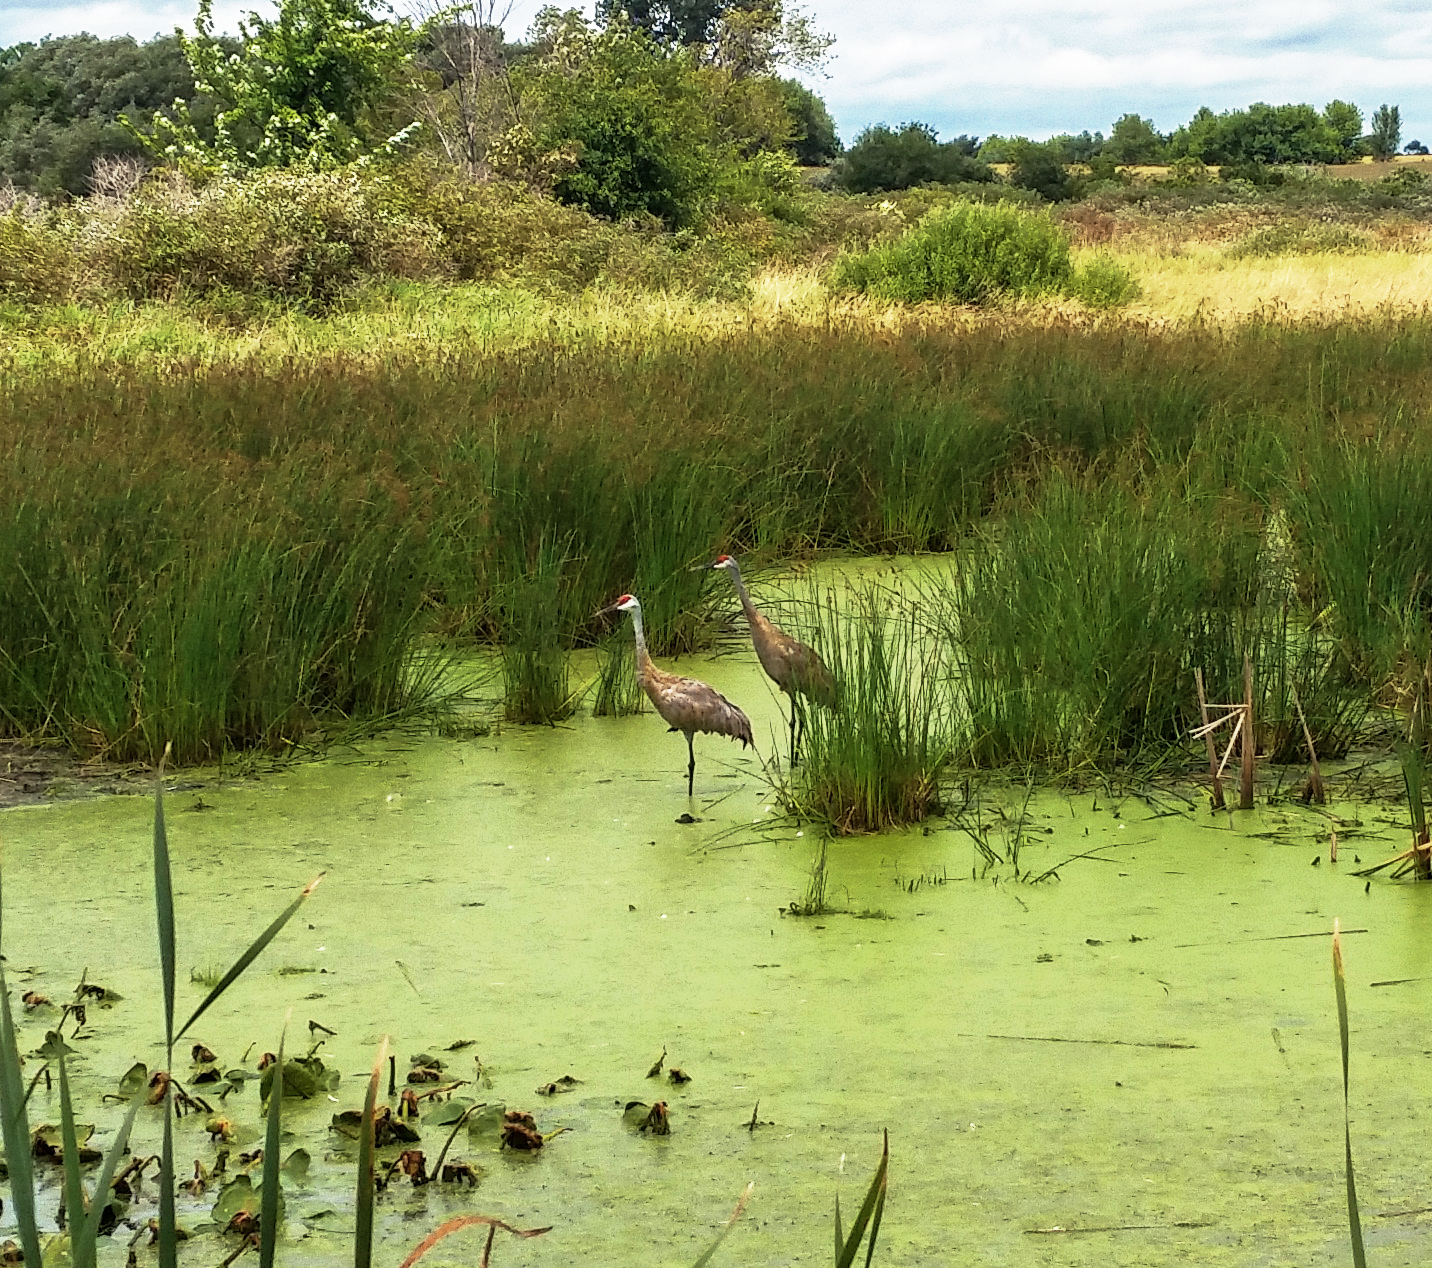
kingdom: Animalia
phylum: Chordata
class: Aves
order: Gruiformes
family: Gruidae
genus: Grus
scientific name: Grus canadensis
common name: Sandhill crane
